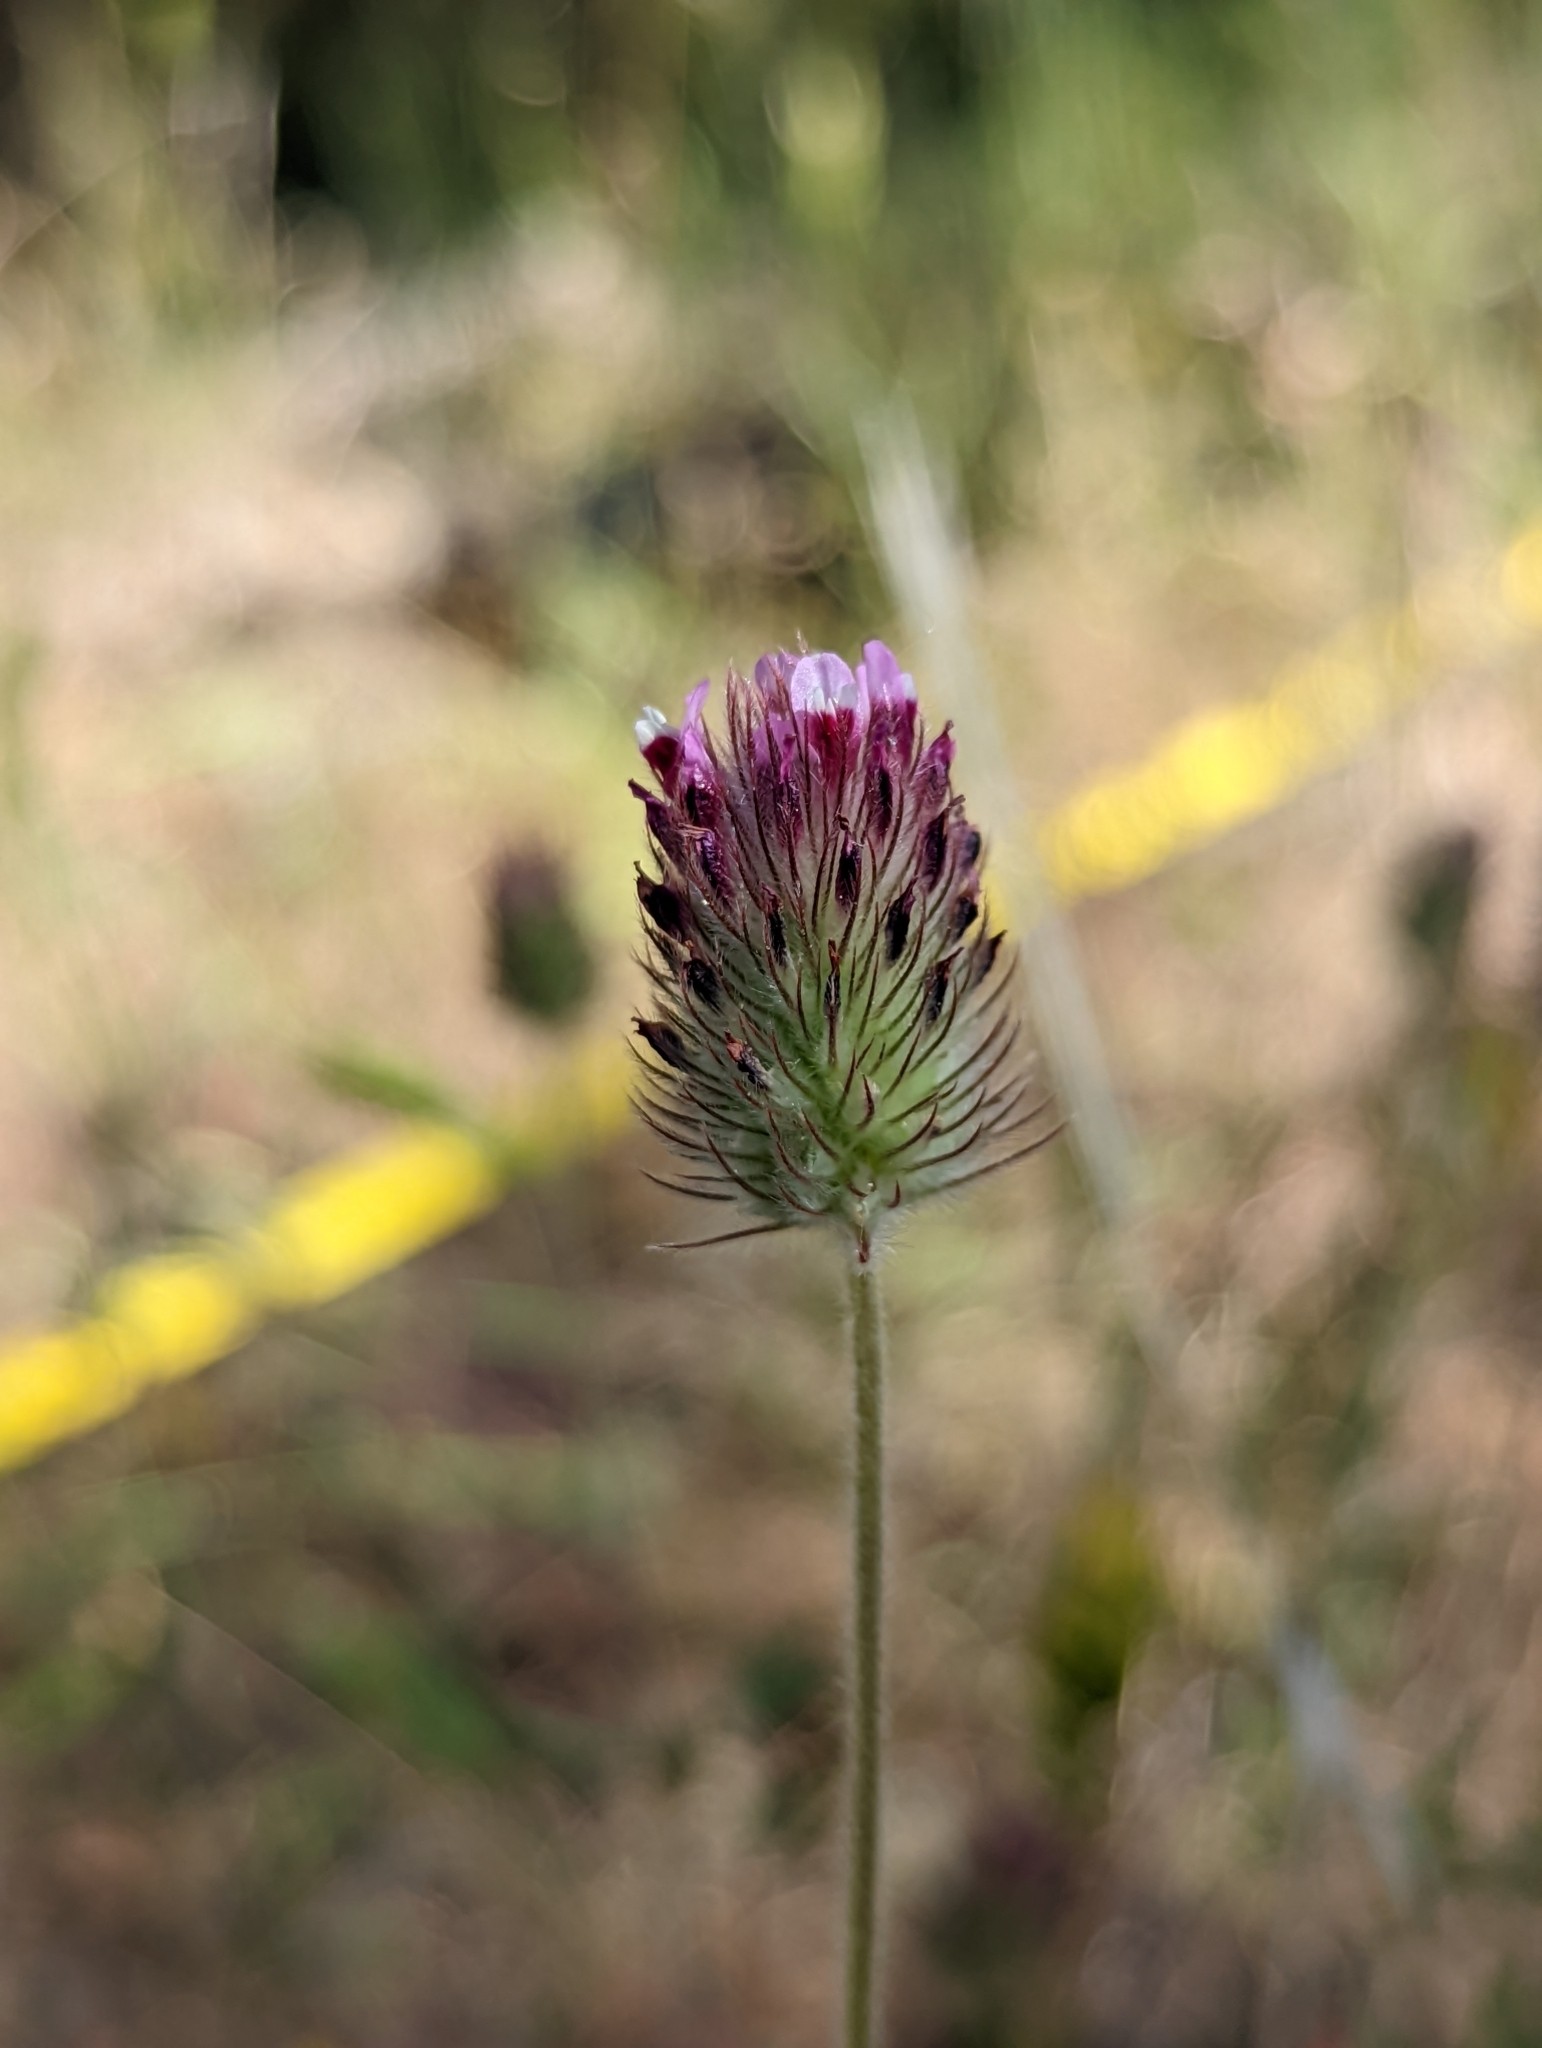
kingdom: Plantae
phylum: Tracheophyta
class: Magnoliopsida
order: Fabales
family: Fabaceae
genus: Trifolium
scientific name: Trifolium albopurpureum
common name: Rancheria clover
